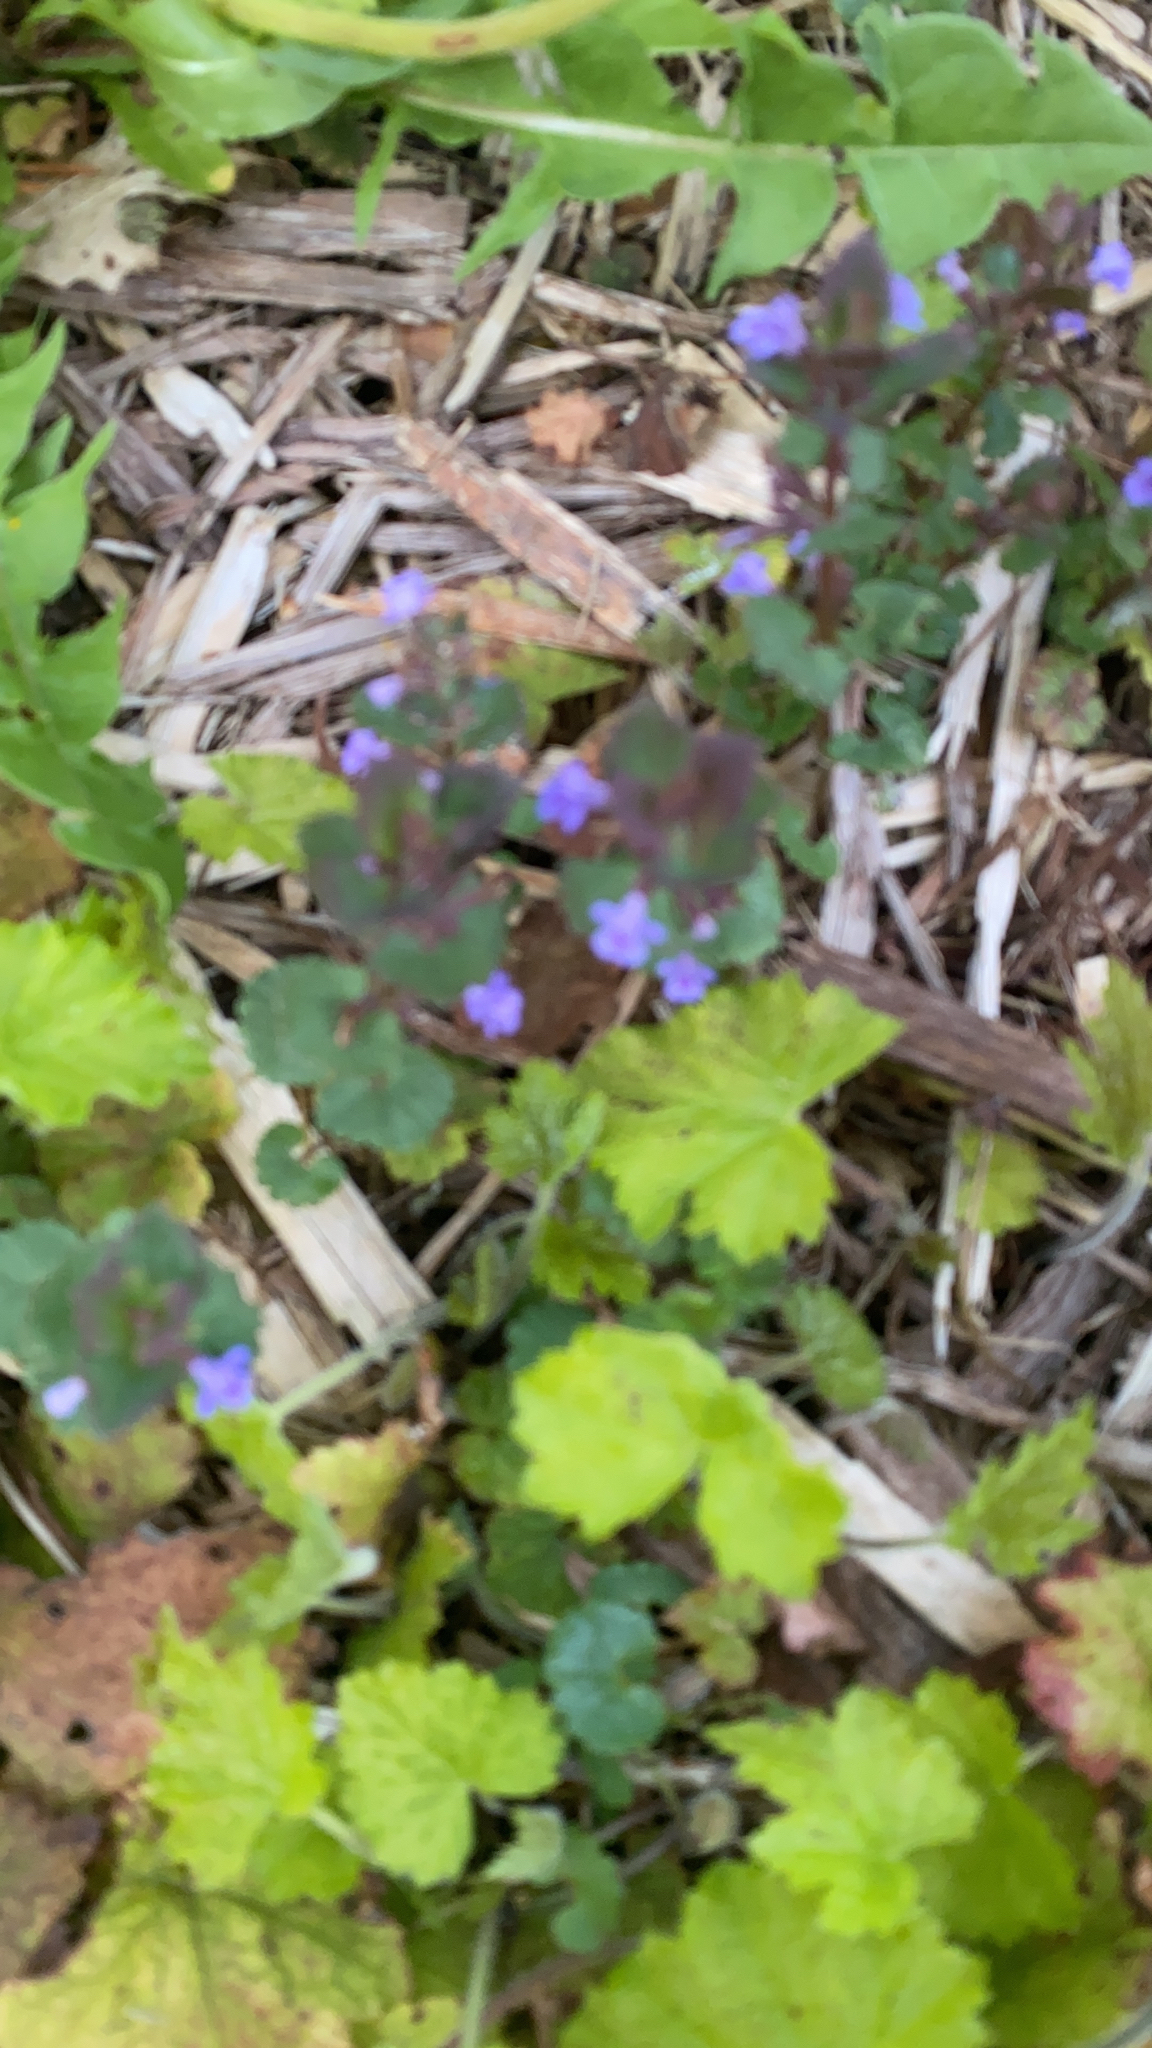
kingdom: Plantae
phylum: Tracheophyta
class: Magnoliopsida
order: Lamiales
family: Lamiaceae
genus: Glechoma
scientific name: Glechoma hederacea
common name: Ground ivy
